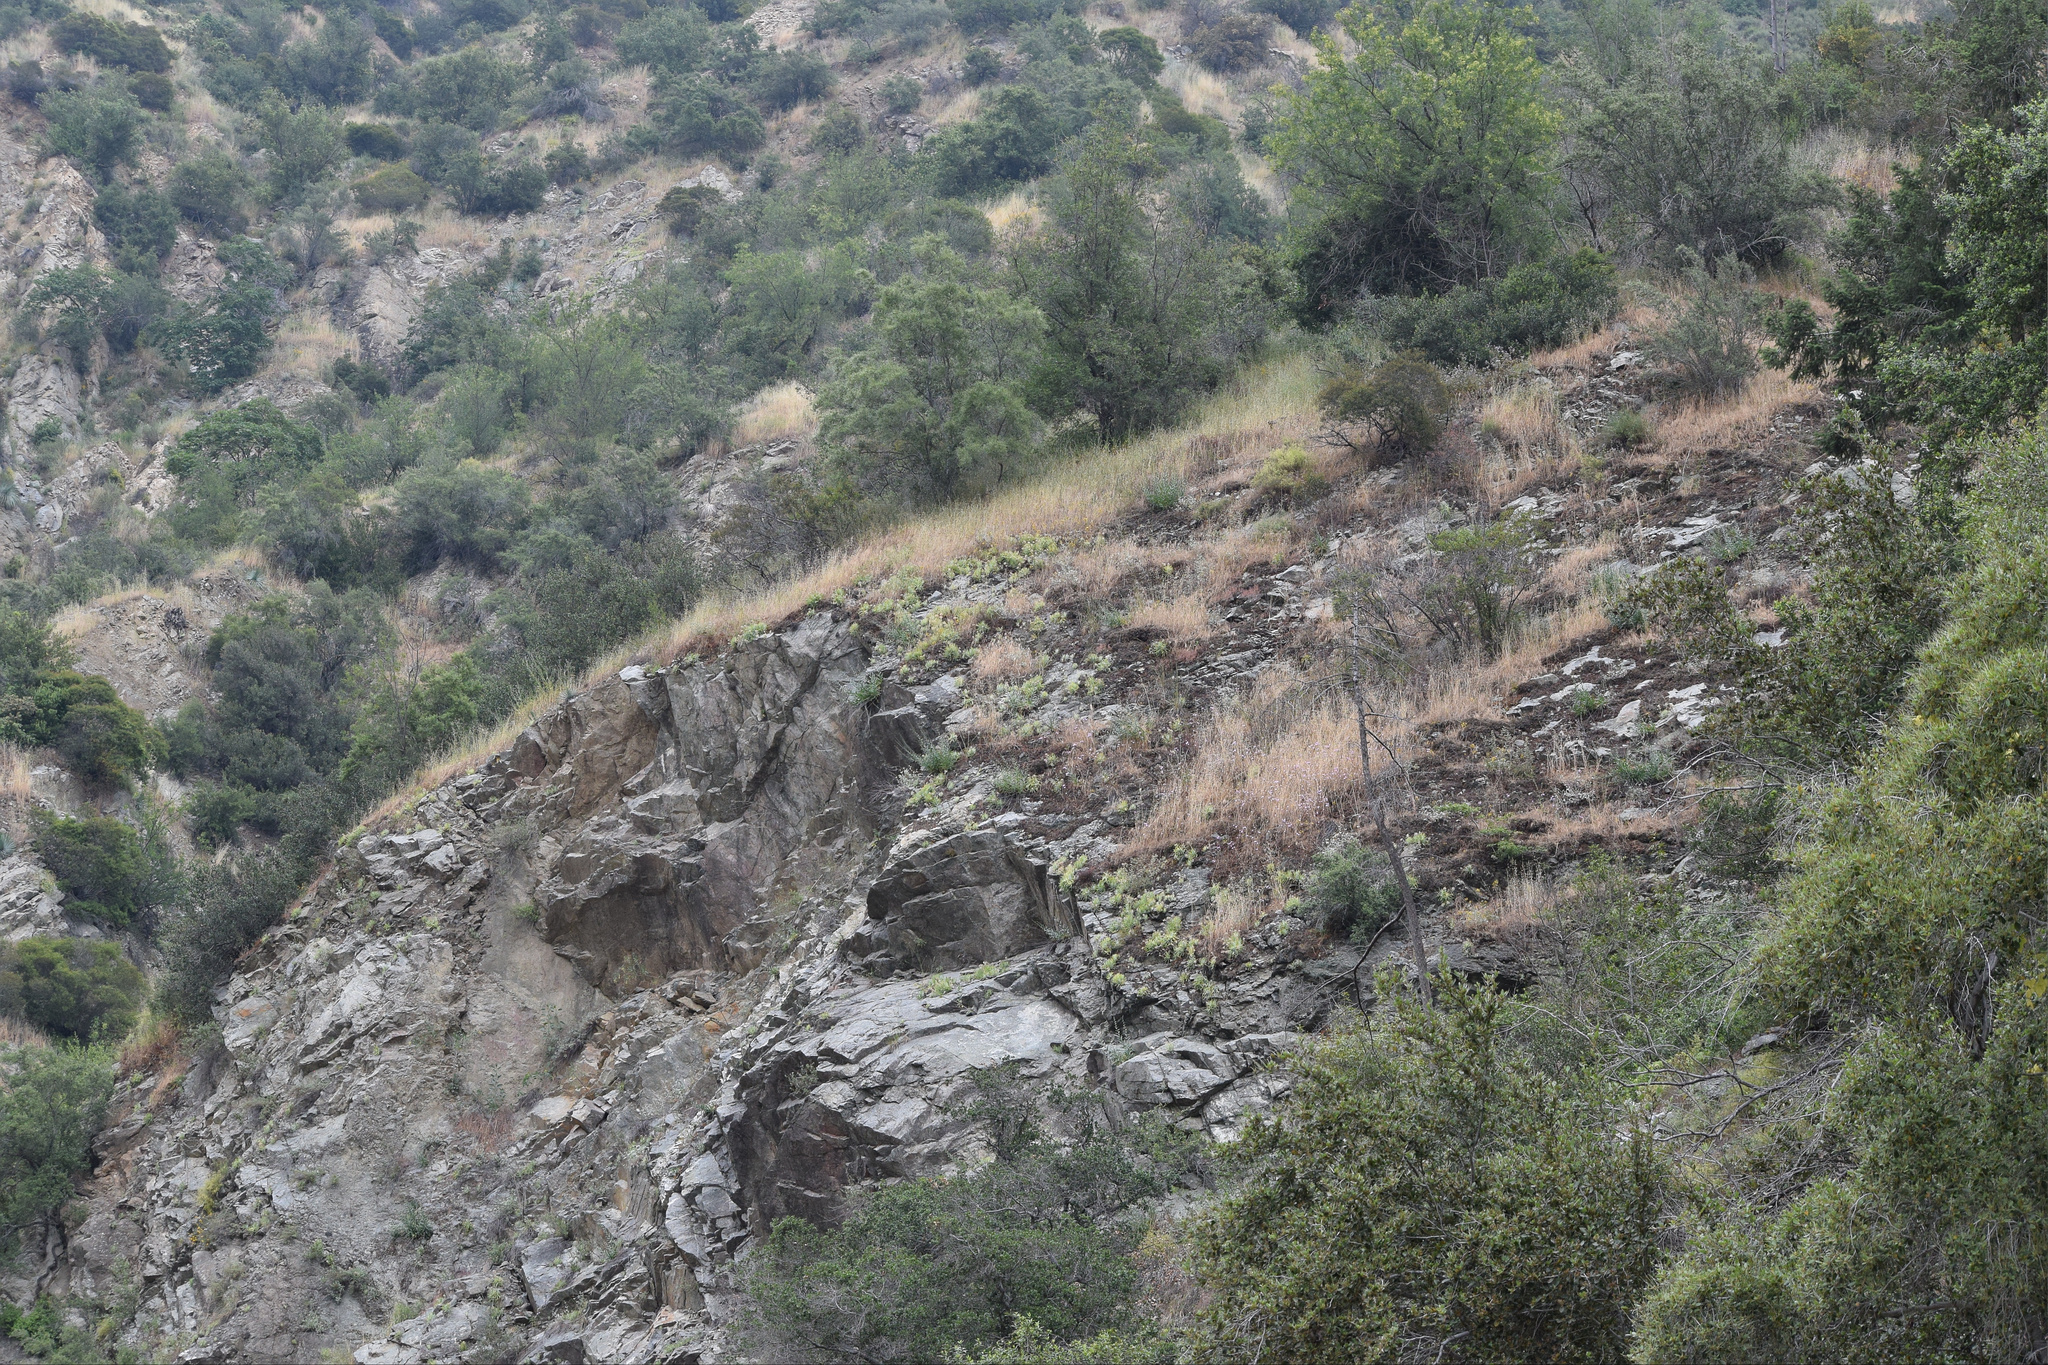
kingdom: Plantae
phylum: Tracheophyta
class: Magnoliopsida
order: Saxifragales
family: Crassulaceae
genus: Dudleya
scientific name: Dudleya densiflora
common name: San gabriel mountains dudleya
